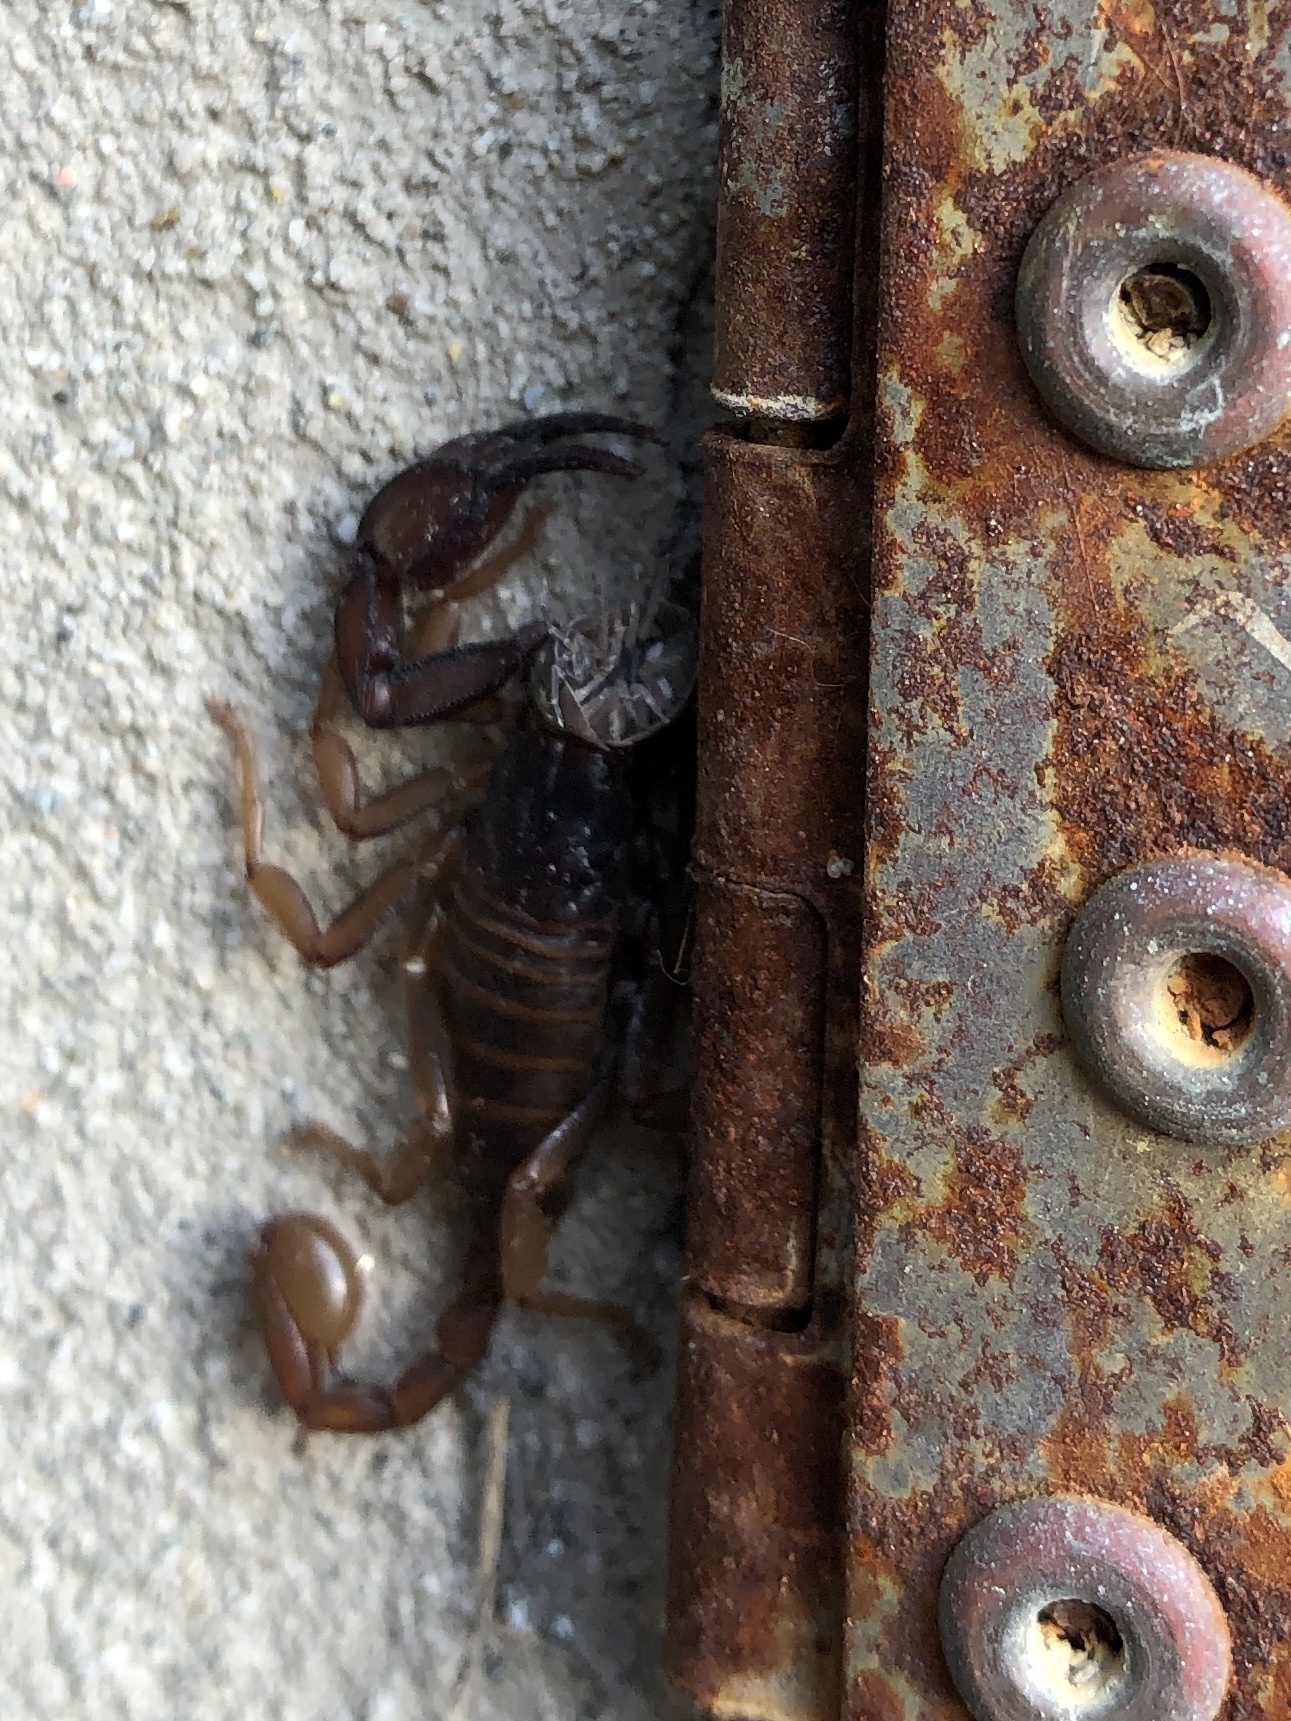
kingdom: Animalia
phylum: Arthropoda
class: Arachnida
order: Scorpiones
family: Euscorpiidae
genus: Euscorpius
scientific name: Euscorpius aquilejensis
